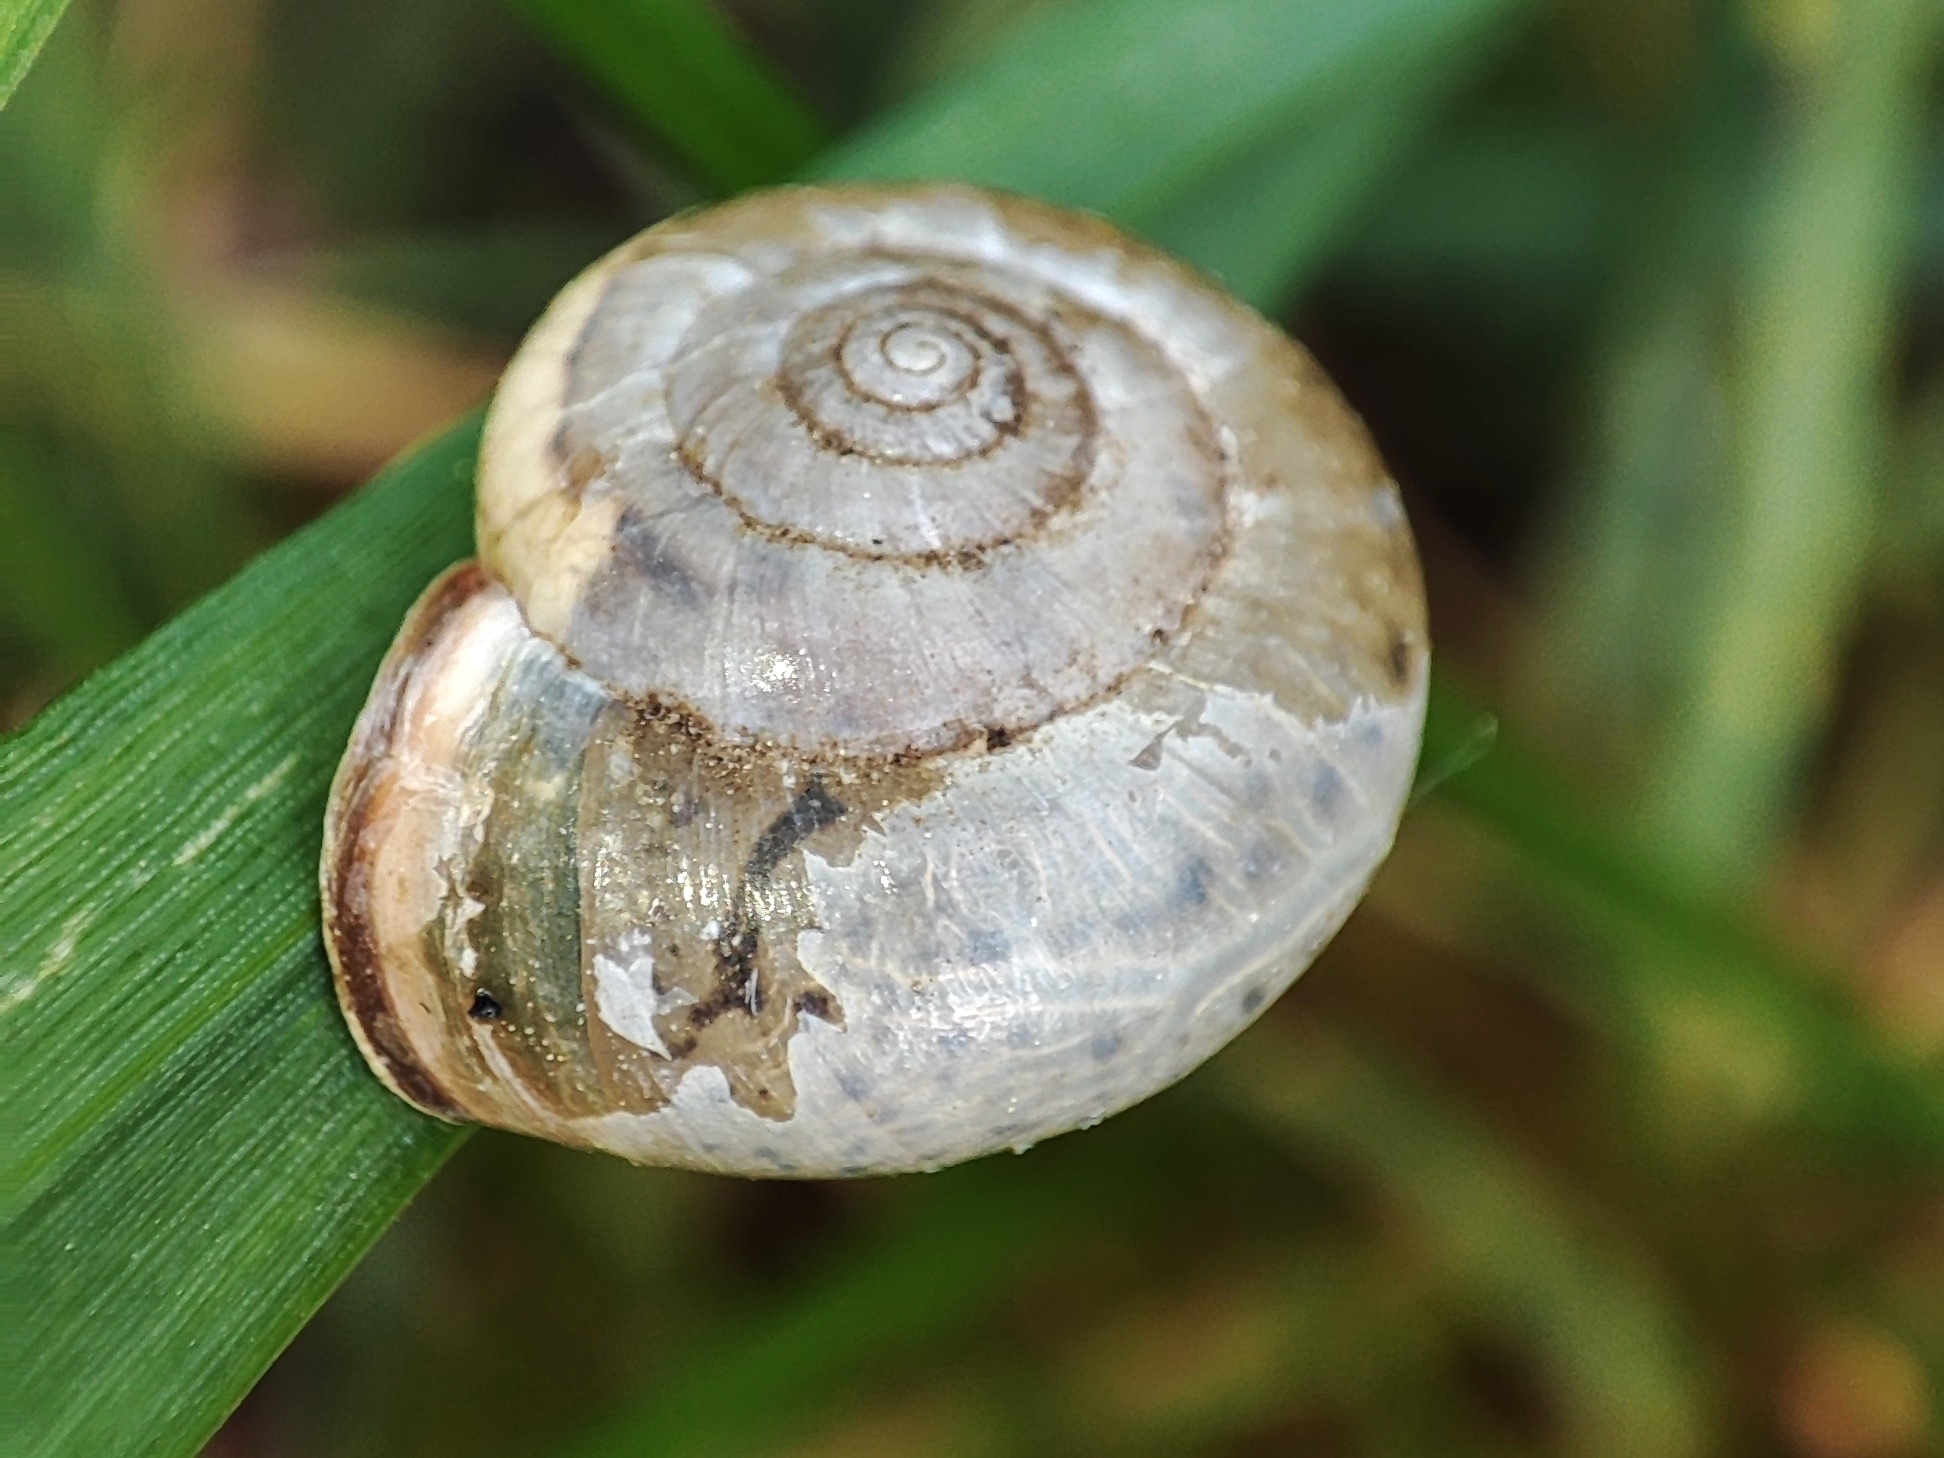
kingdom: Animalia
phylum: Mollusca
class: Gastropoda
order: Stylommatophora
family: Hygromiidae
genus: Monacha
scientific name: Monacha cartusiana
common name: Carthusian snail
